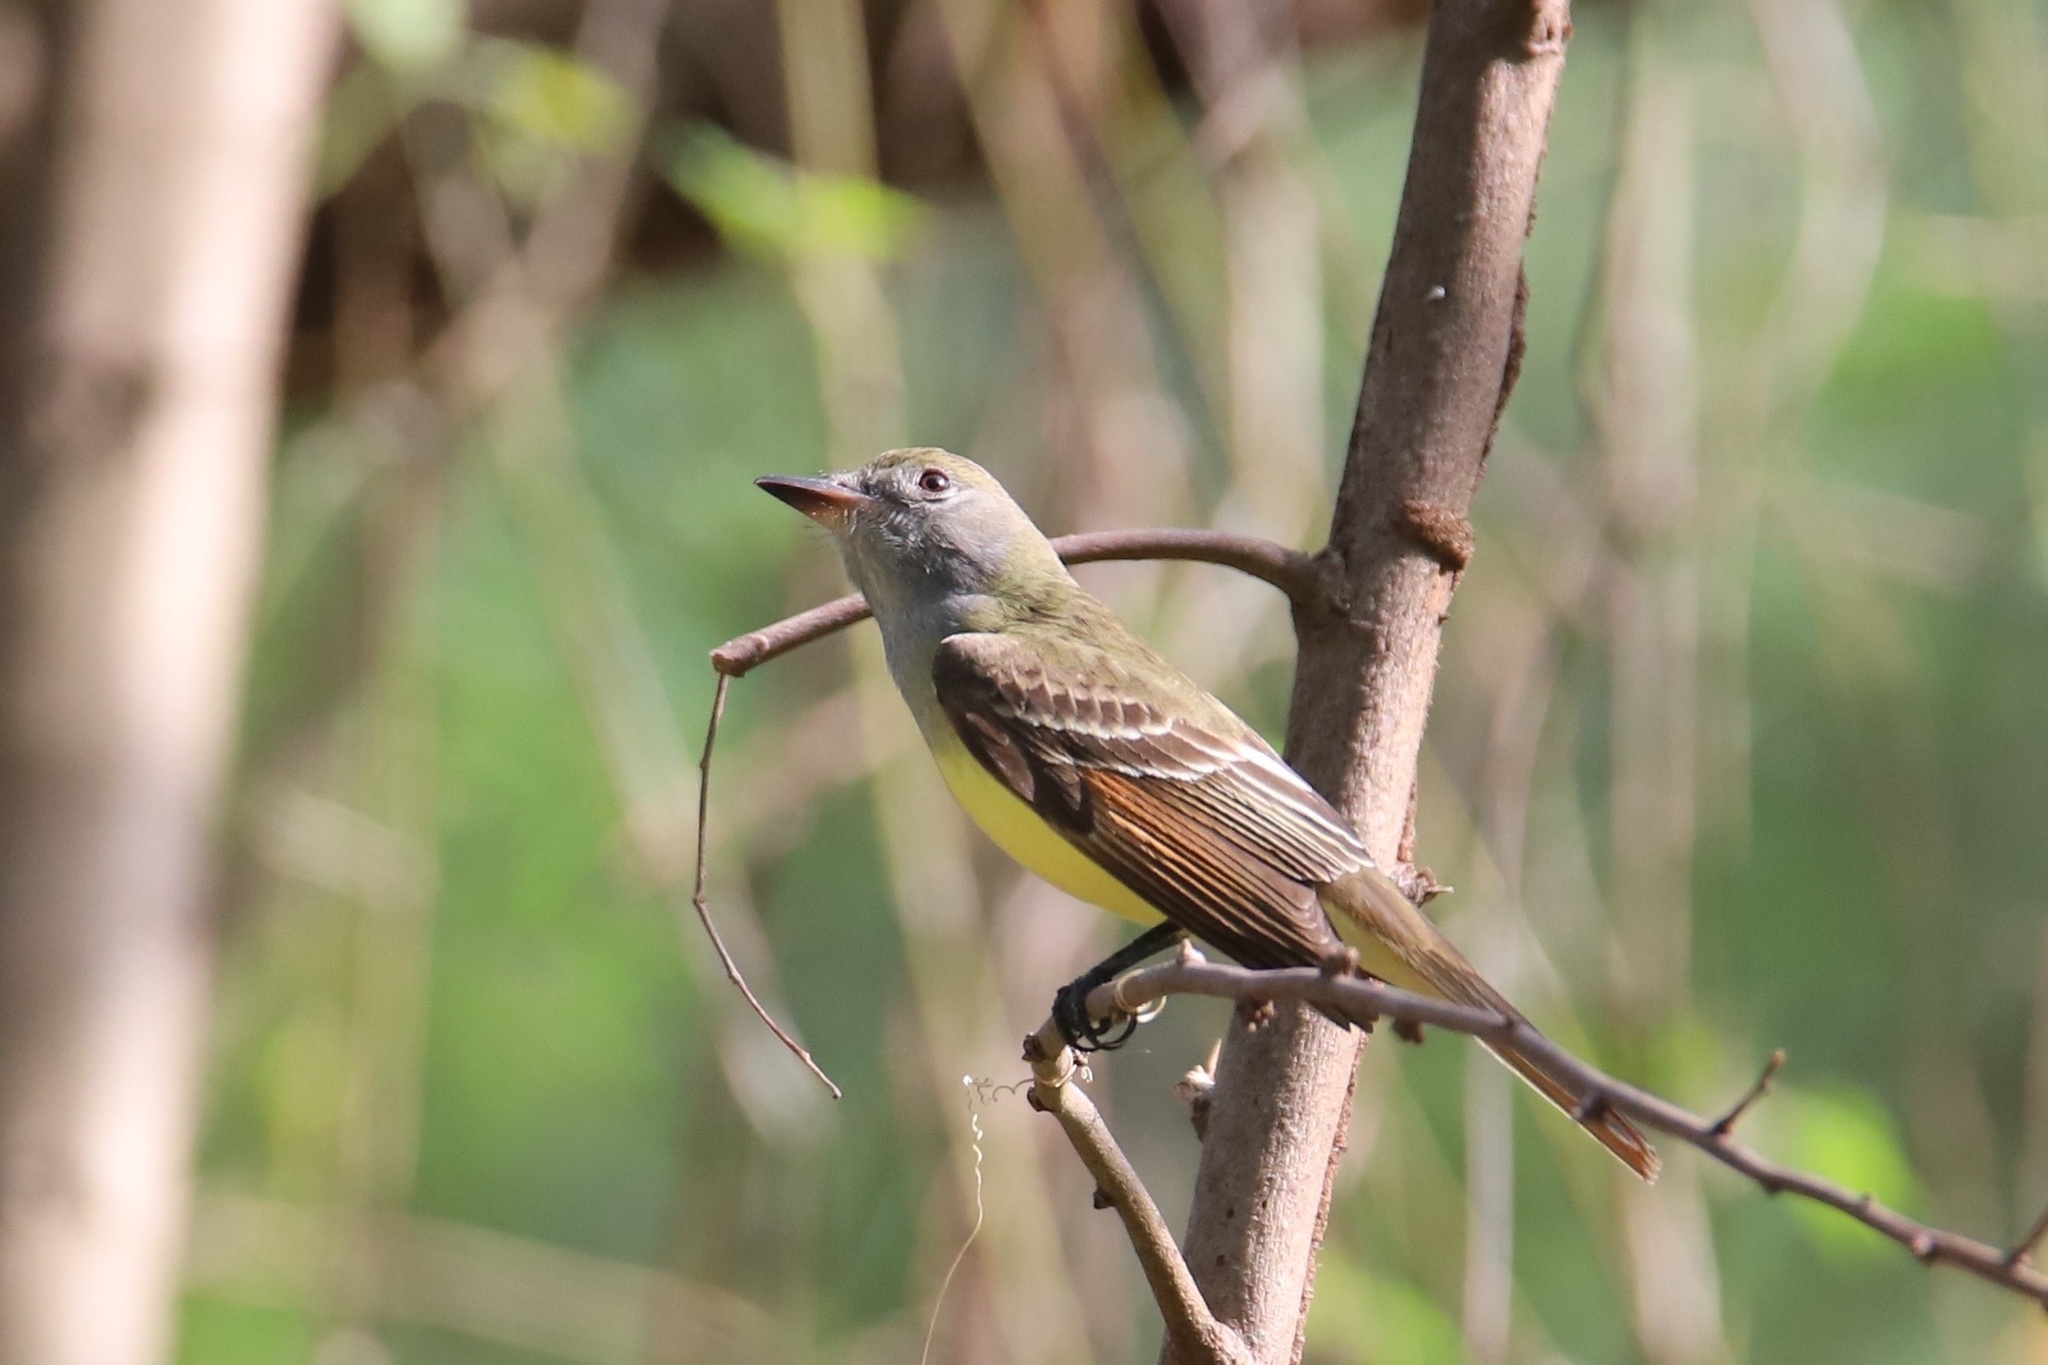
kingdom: Animalia
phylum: Chordata
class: Aves
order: Passeriformes
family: Tyrannidae
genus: Myiarchus
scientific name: Myiarchus crinitus
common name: Great crested flycatcher
